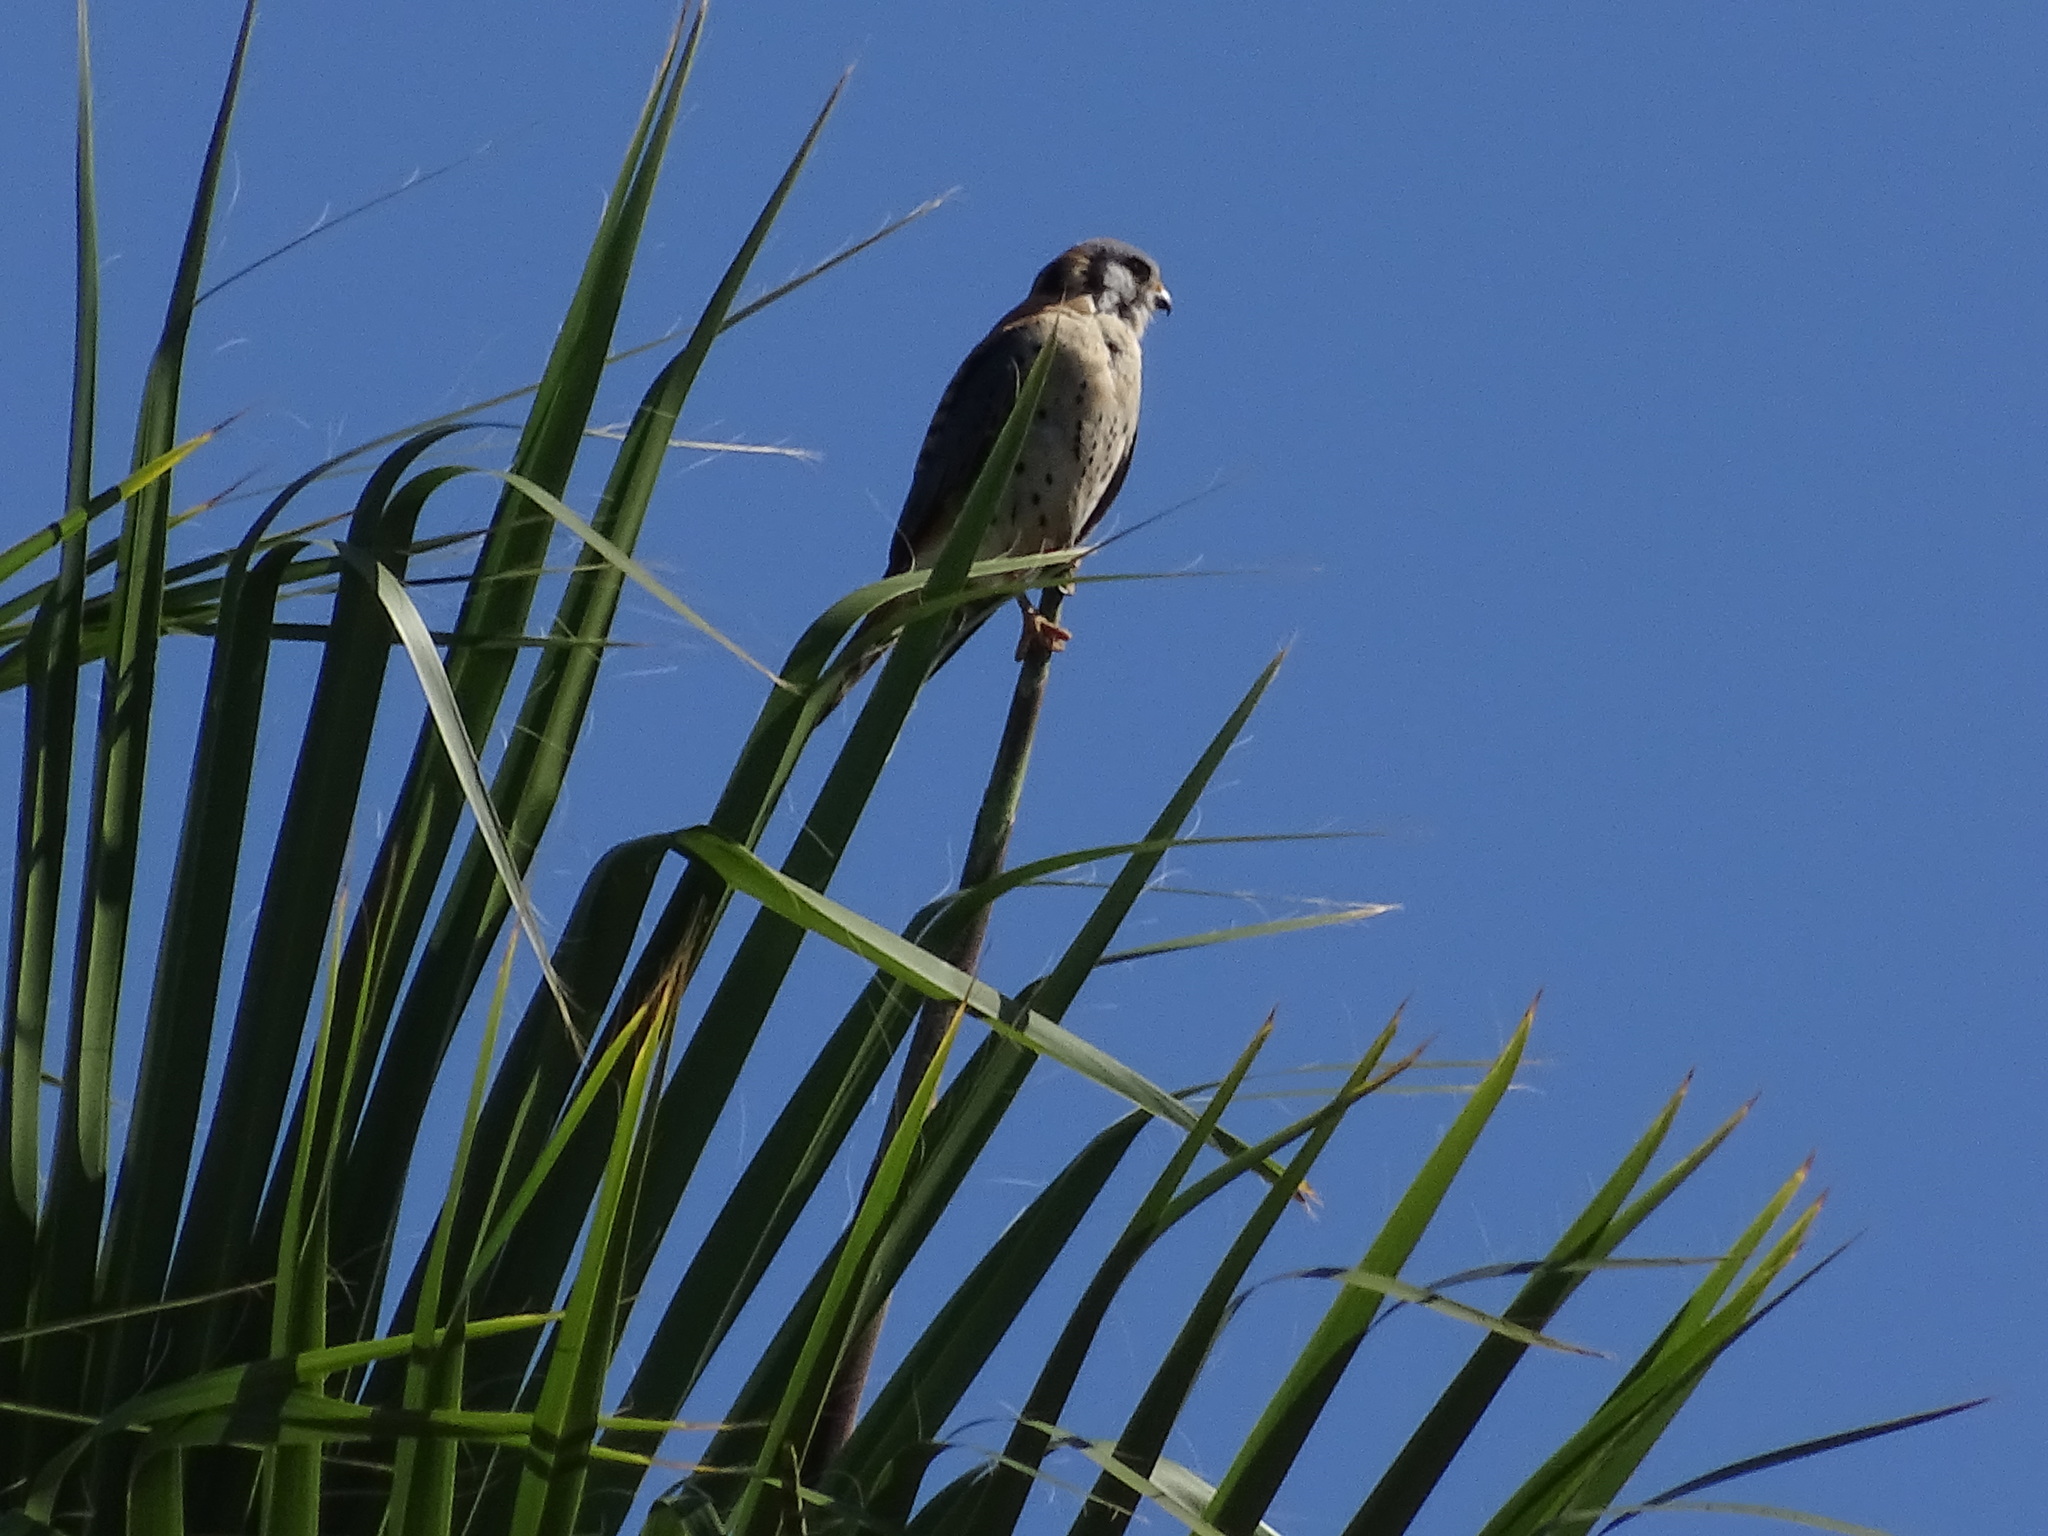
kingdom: Animalia
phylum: Chordata
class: Aves
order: Falconiformes
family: Falconidae
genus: Falco
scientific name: Falco sparverius
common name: American kestrel
